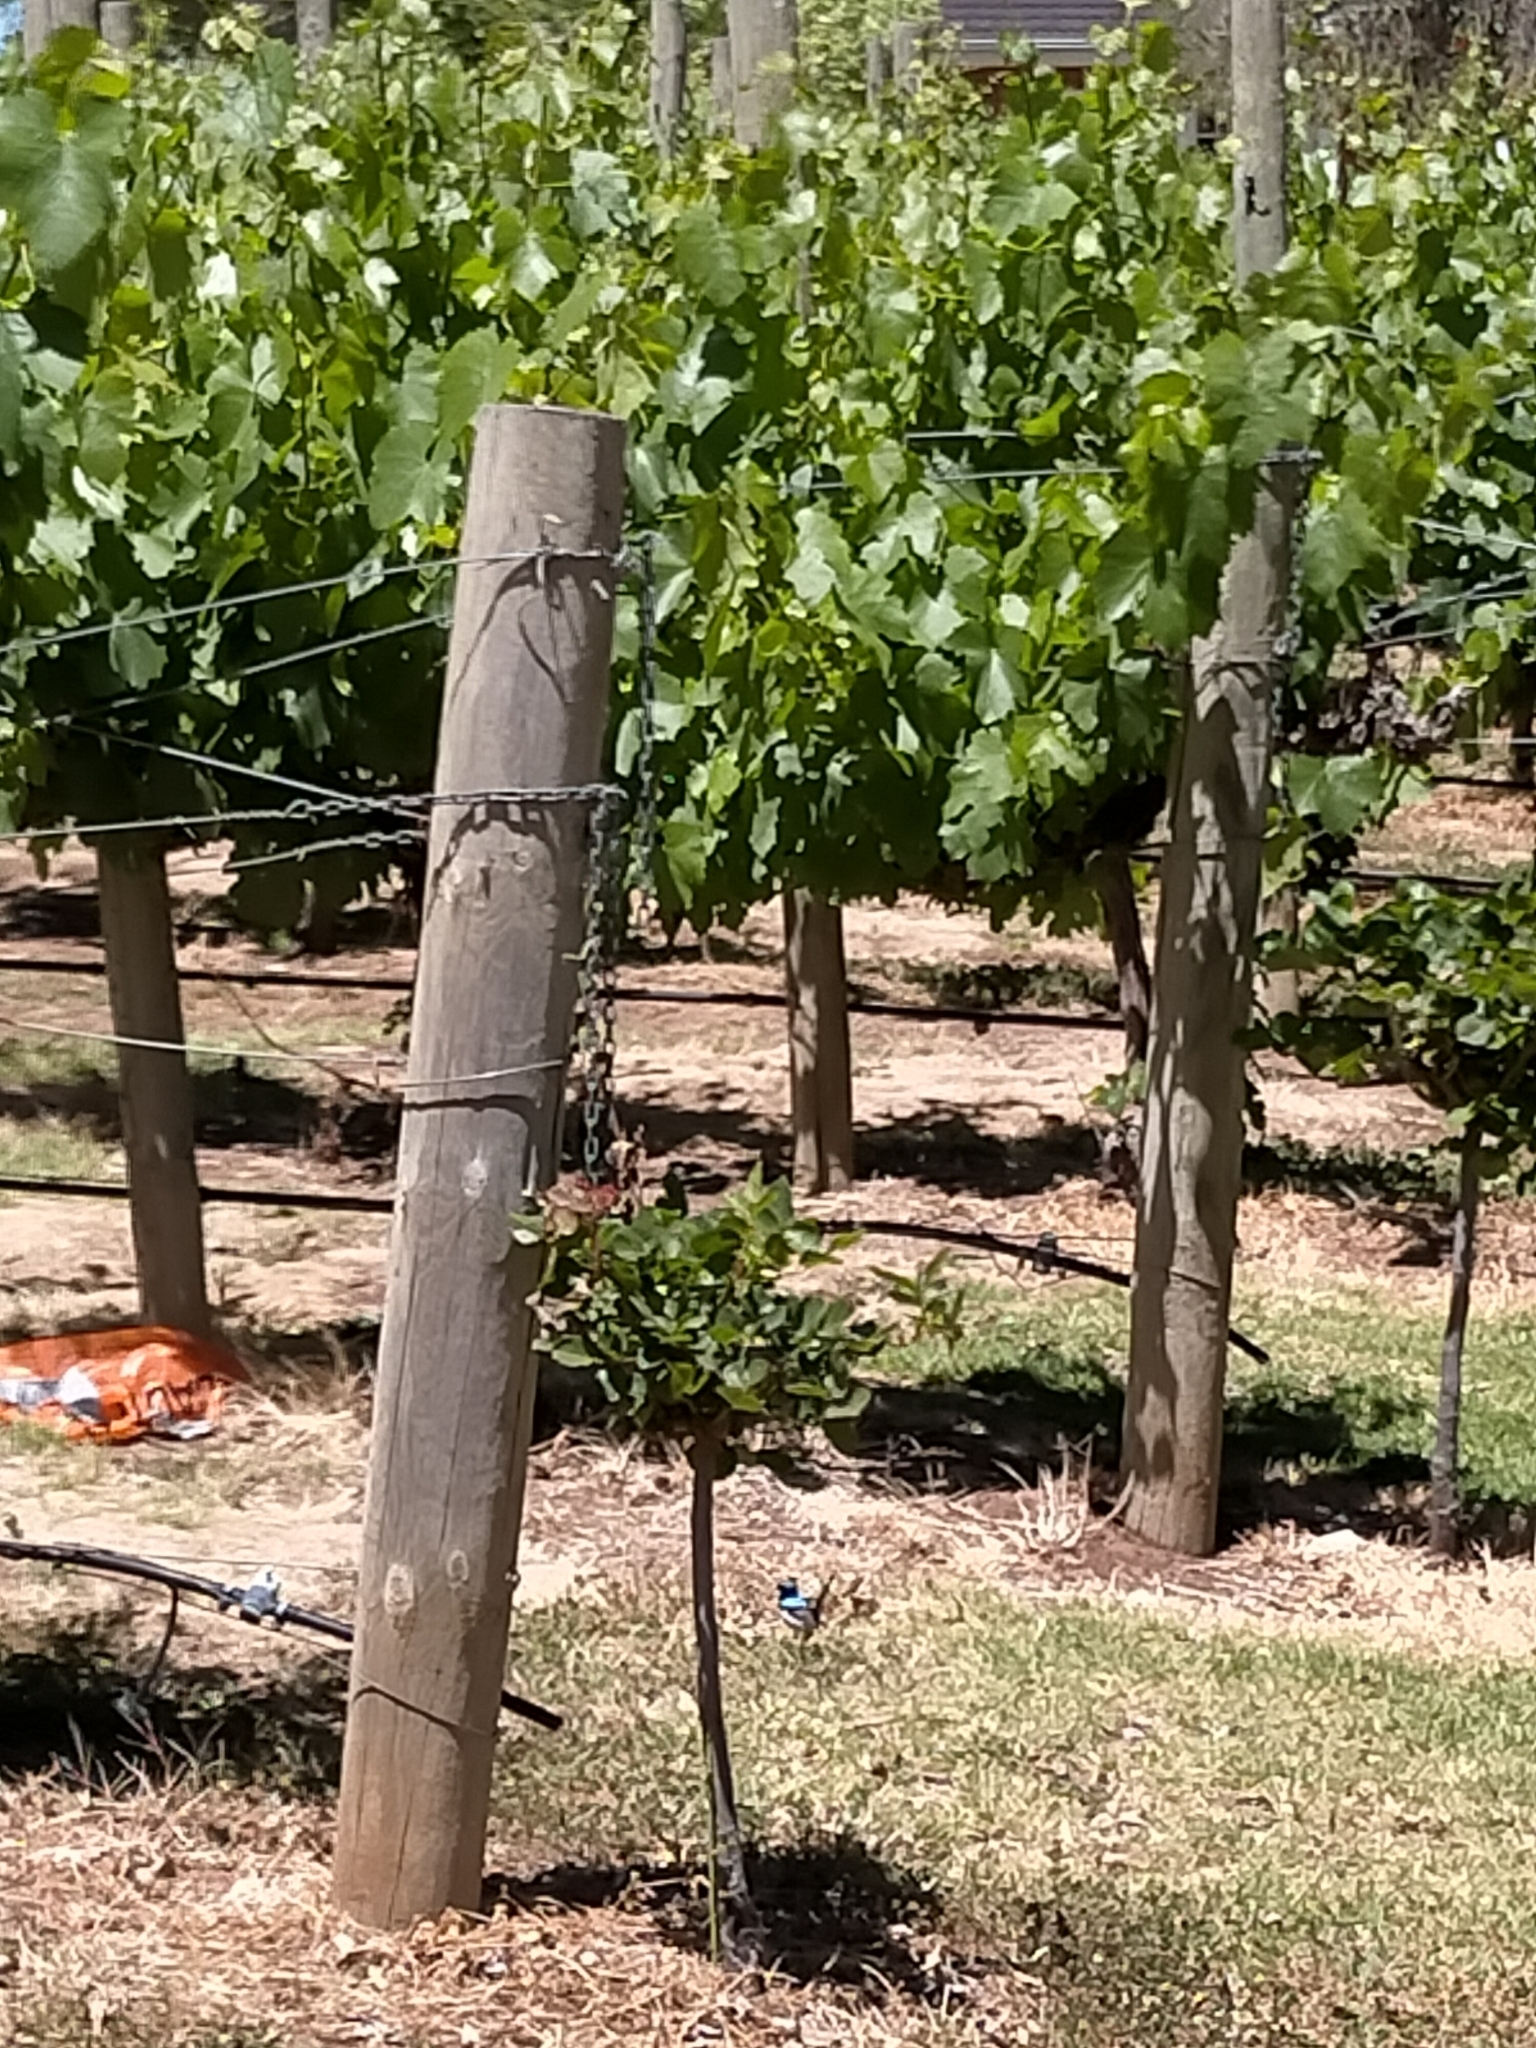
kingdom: Animalia
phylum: Chordata
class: Aves
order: Passeriformes
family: Maluridae
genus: Malurus
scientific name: Malurus cyaneus
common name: Superb fairywren
